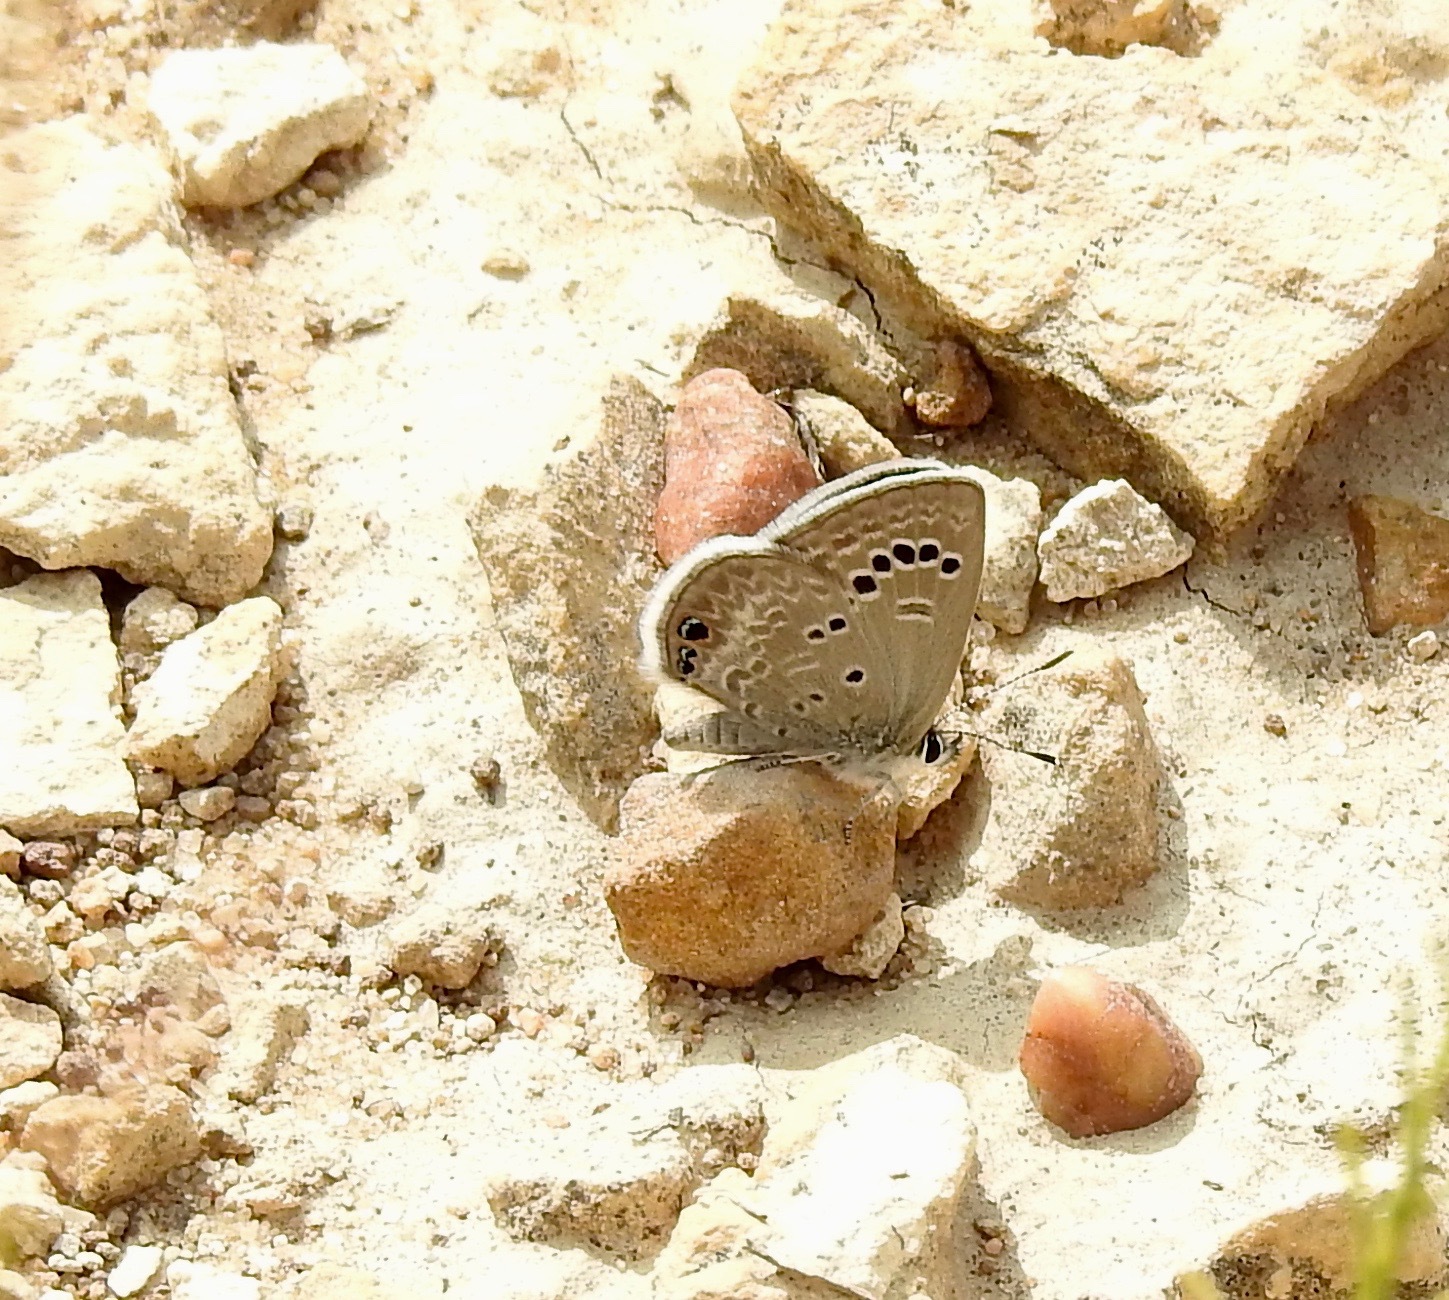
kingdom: Animalia
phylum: Arthropoda
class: Insecta
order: Lepidoptera
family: Lycaenidae
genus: Echinargus
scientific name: Echinargus isola
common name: Reakirt's blue
